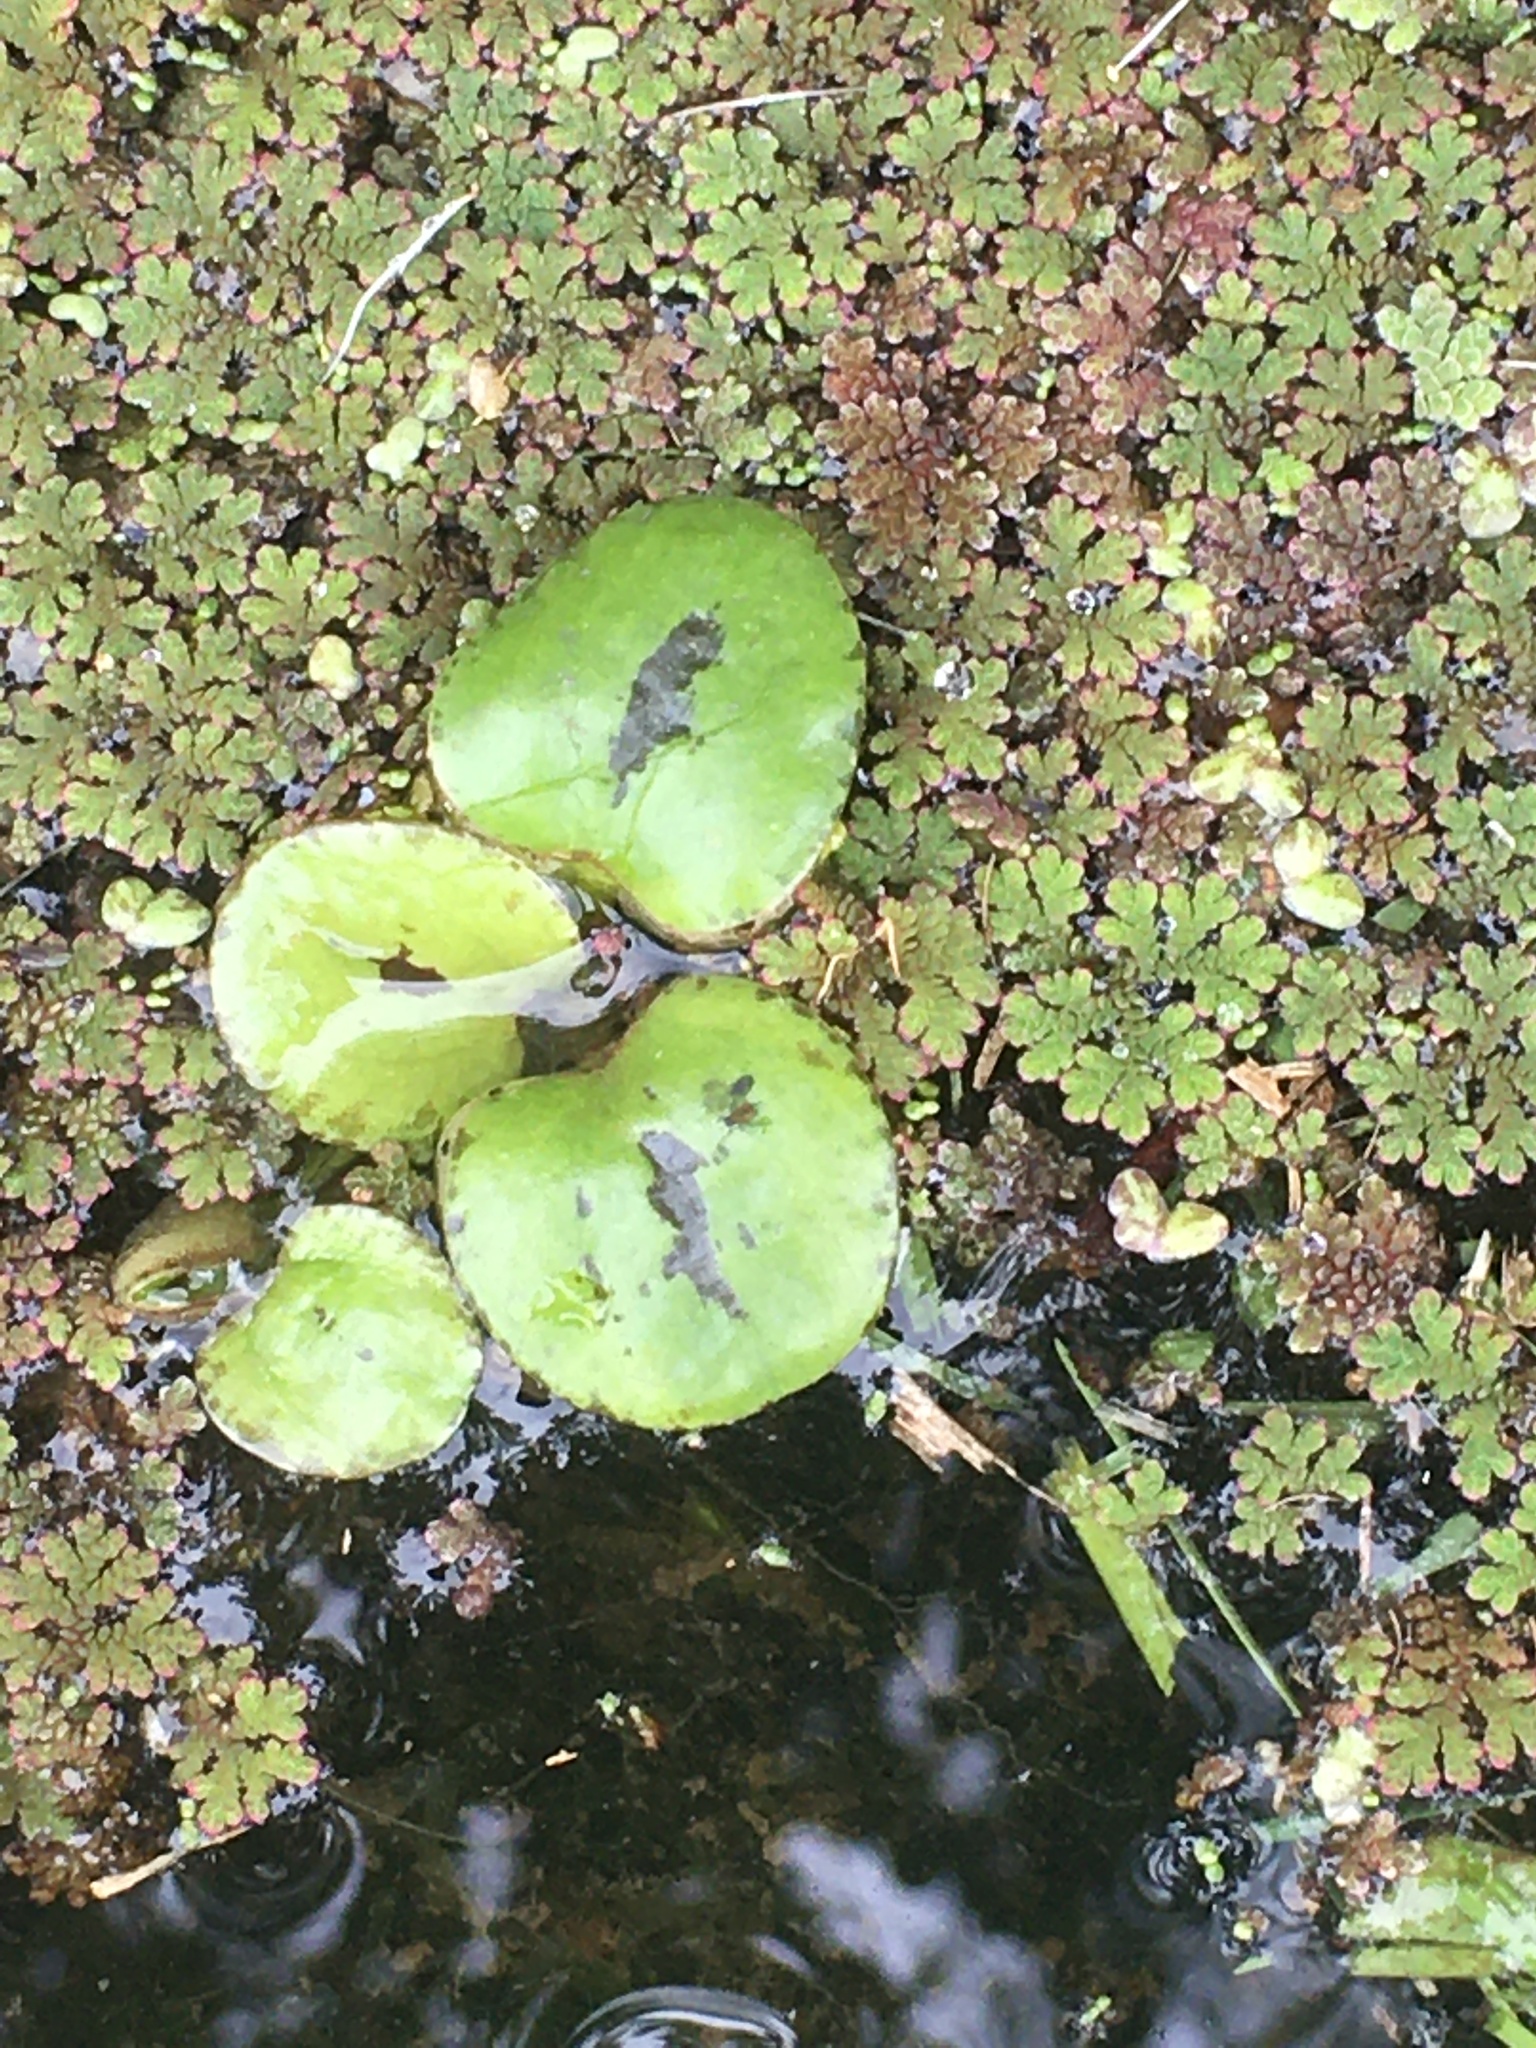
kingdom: Plantae
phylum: Tracheophyta
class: Liliopsida
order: Alismatales
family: Hydrocharitaceae
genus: Hydrocharis
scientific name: Hydrocharis laevigata
